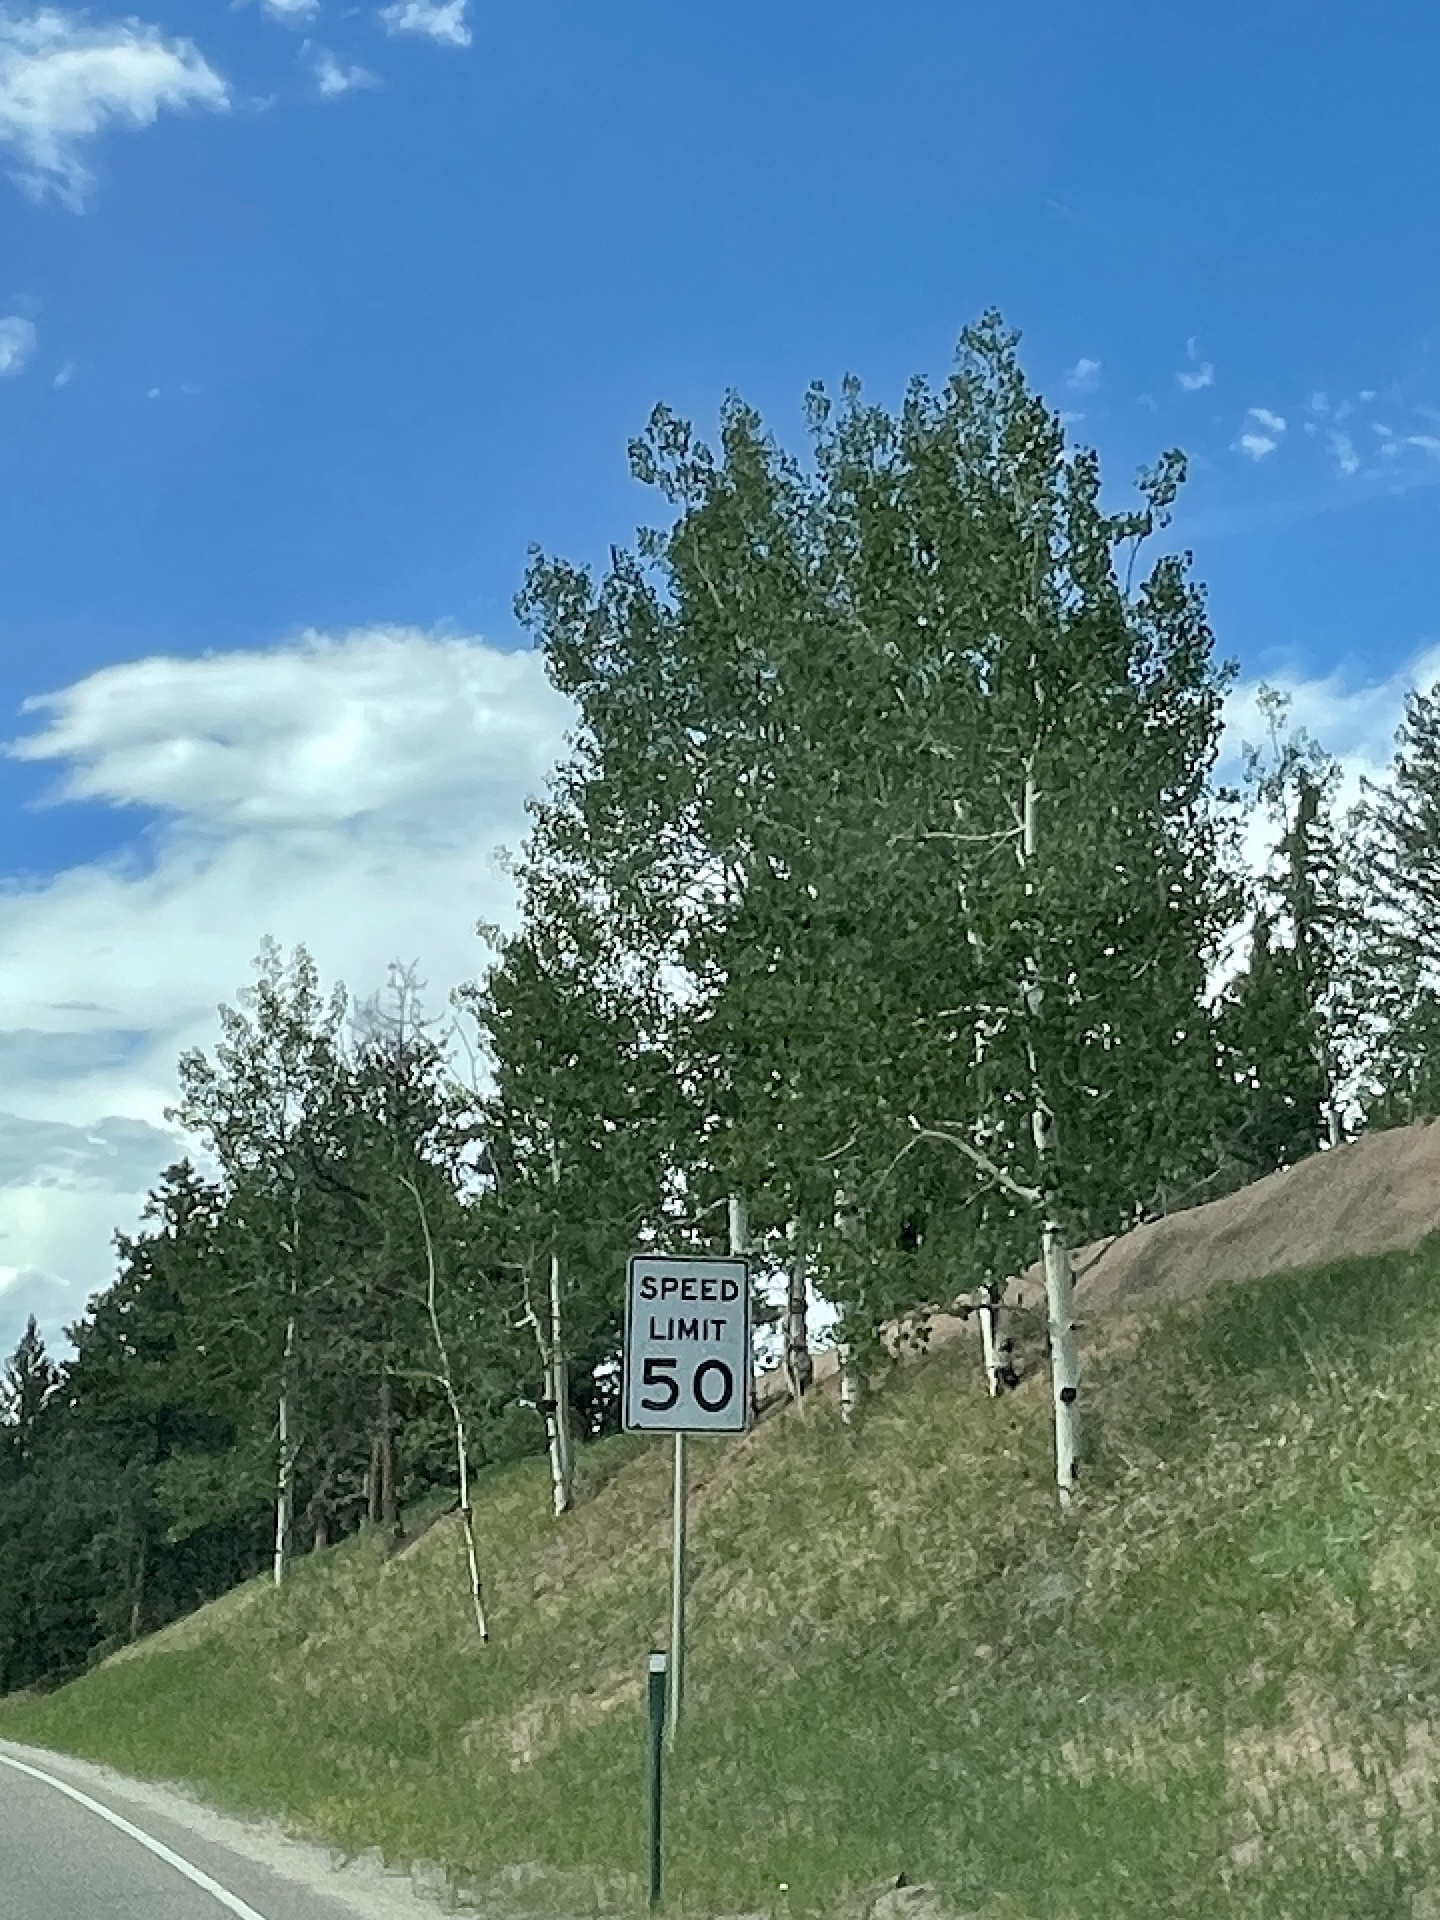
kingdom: Plantae
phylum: Tracheophyta
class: Magnoliopsida
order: Malpighiales
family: Salicaceae
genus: Populus
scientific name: Populus tremuloides
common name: Quaking aspen
